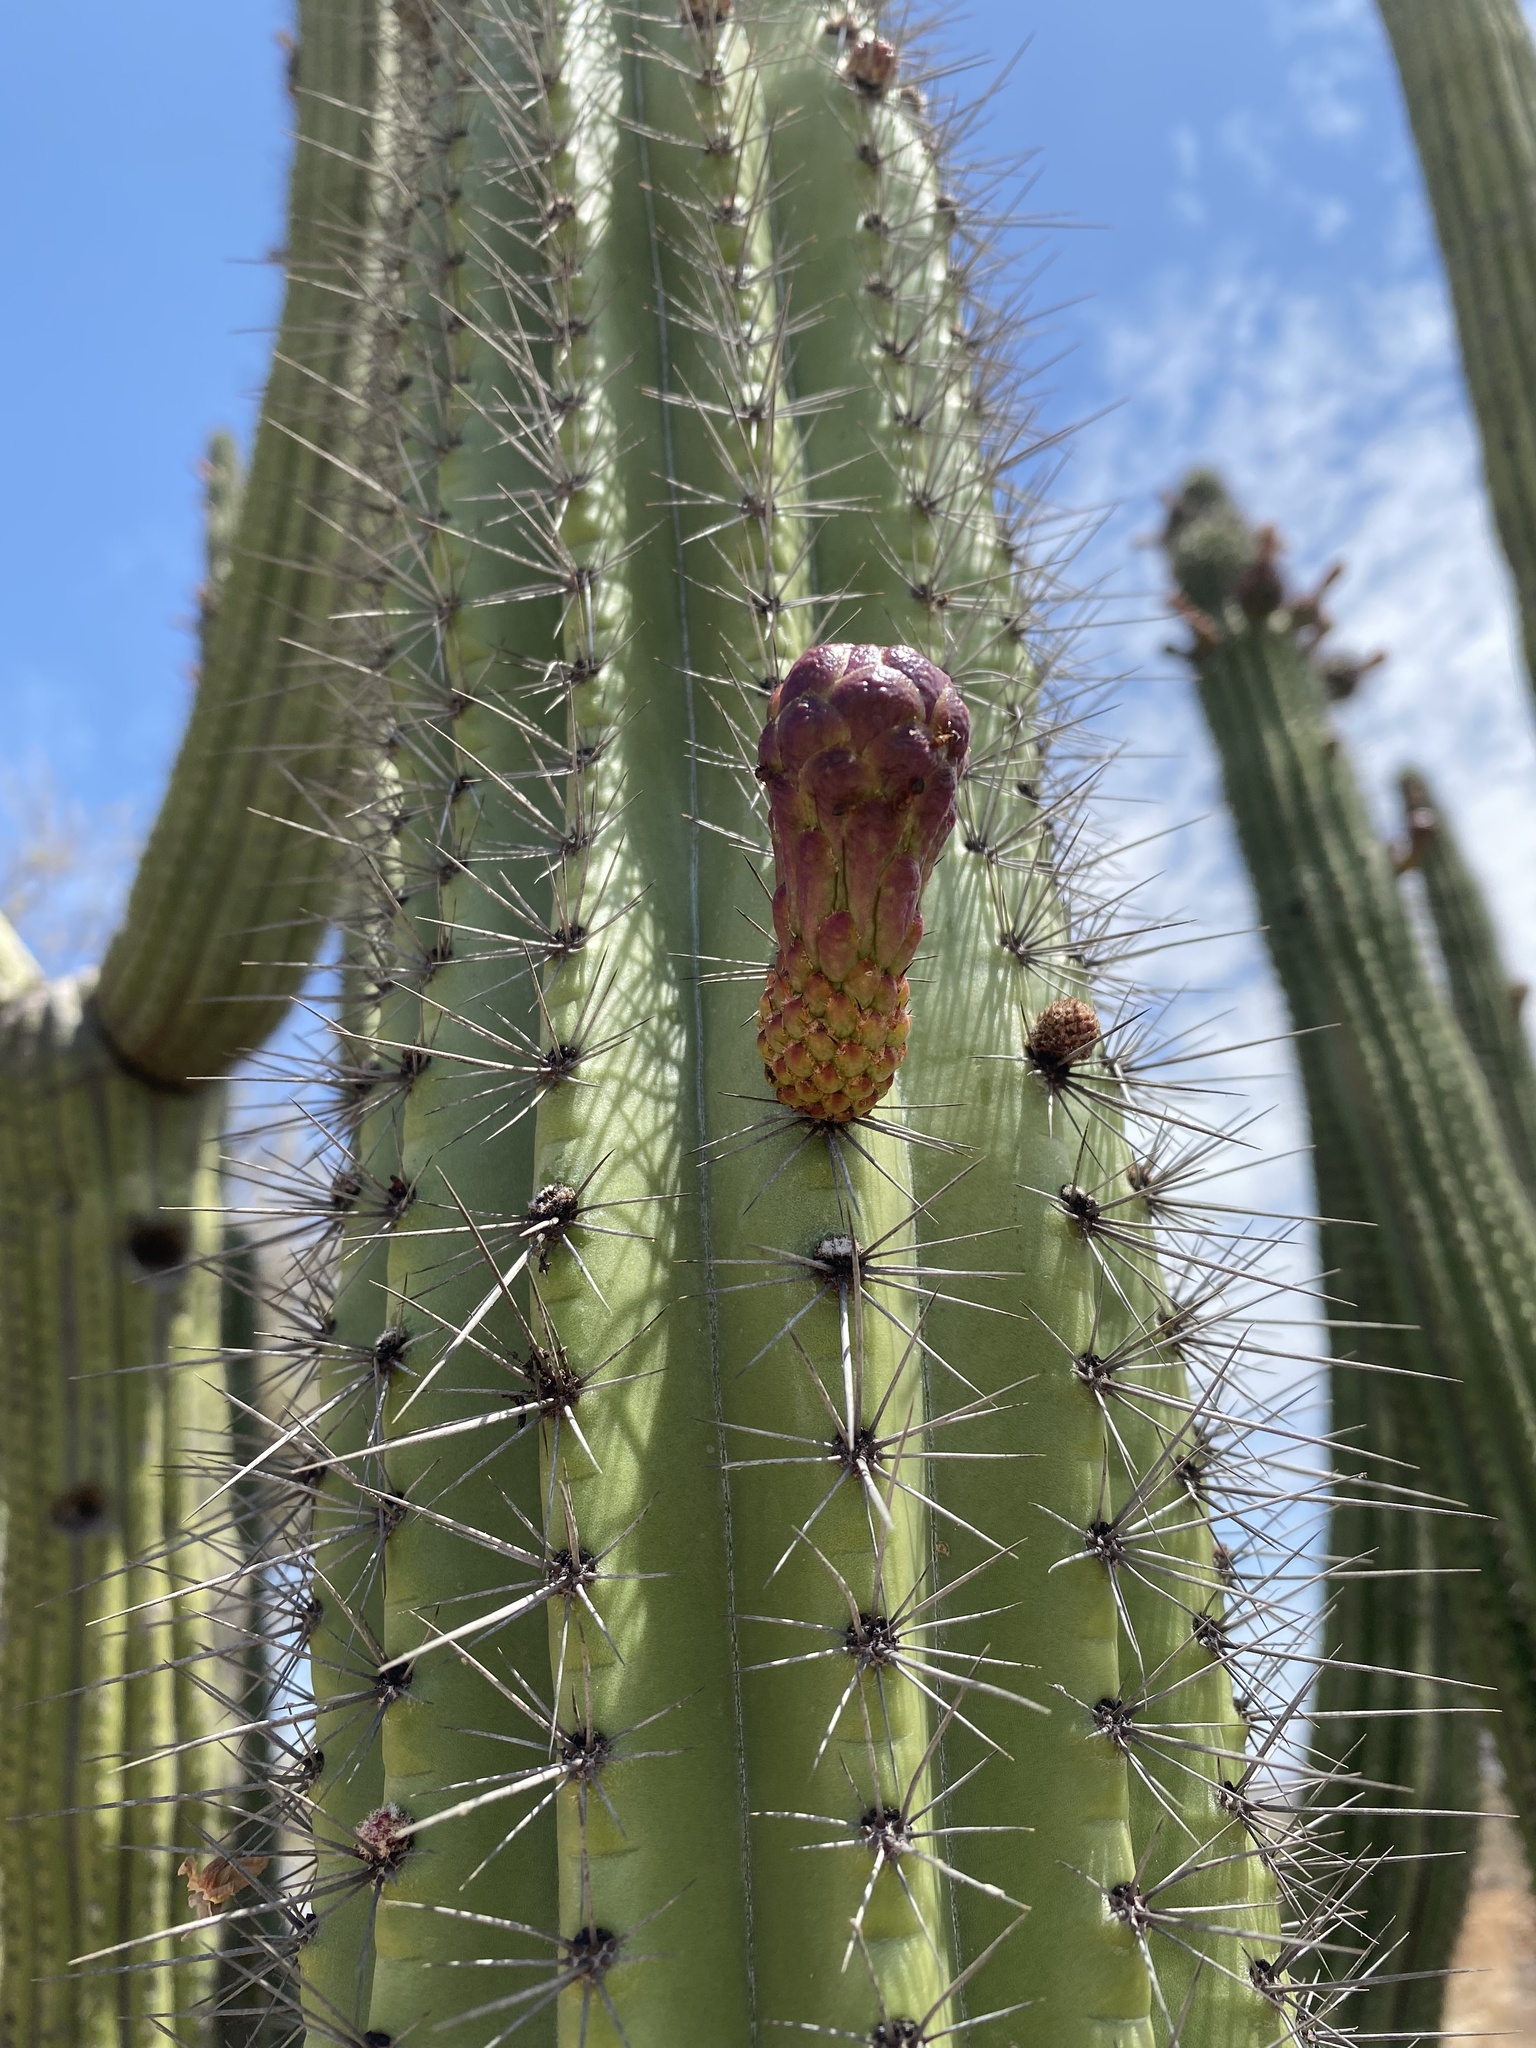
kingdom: Plantae
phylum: Tracheophyta
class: Magnoliopsida
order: Caryophyllales
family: Cactaceae
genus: Stenocereus
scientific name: Stenocereus thurberi
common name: Organ pipe cactus
